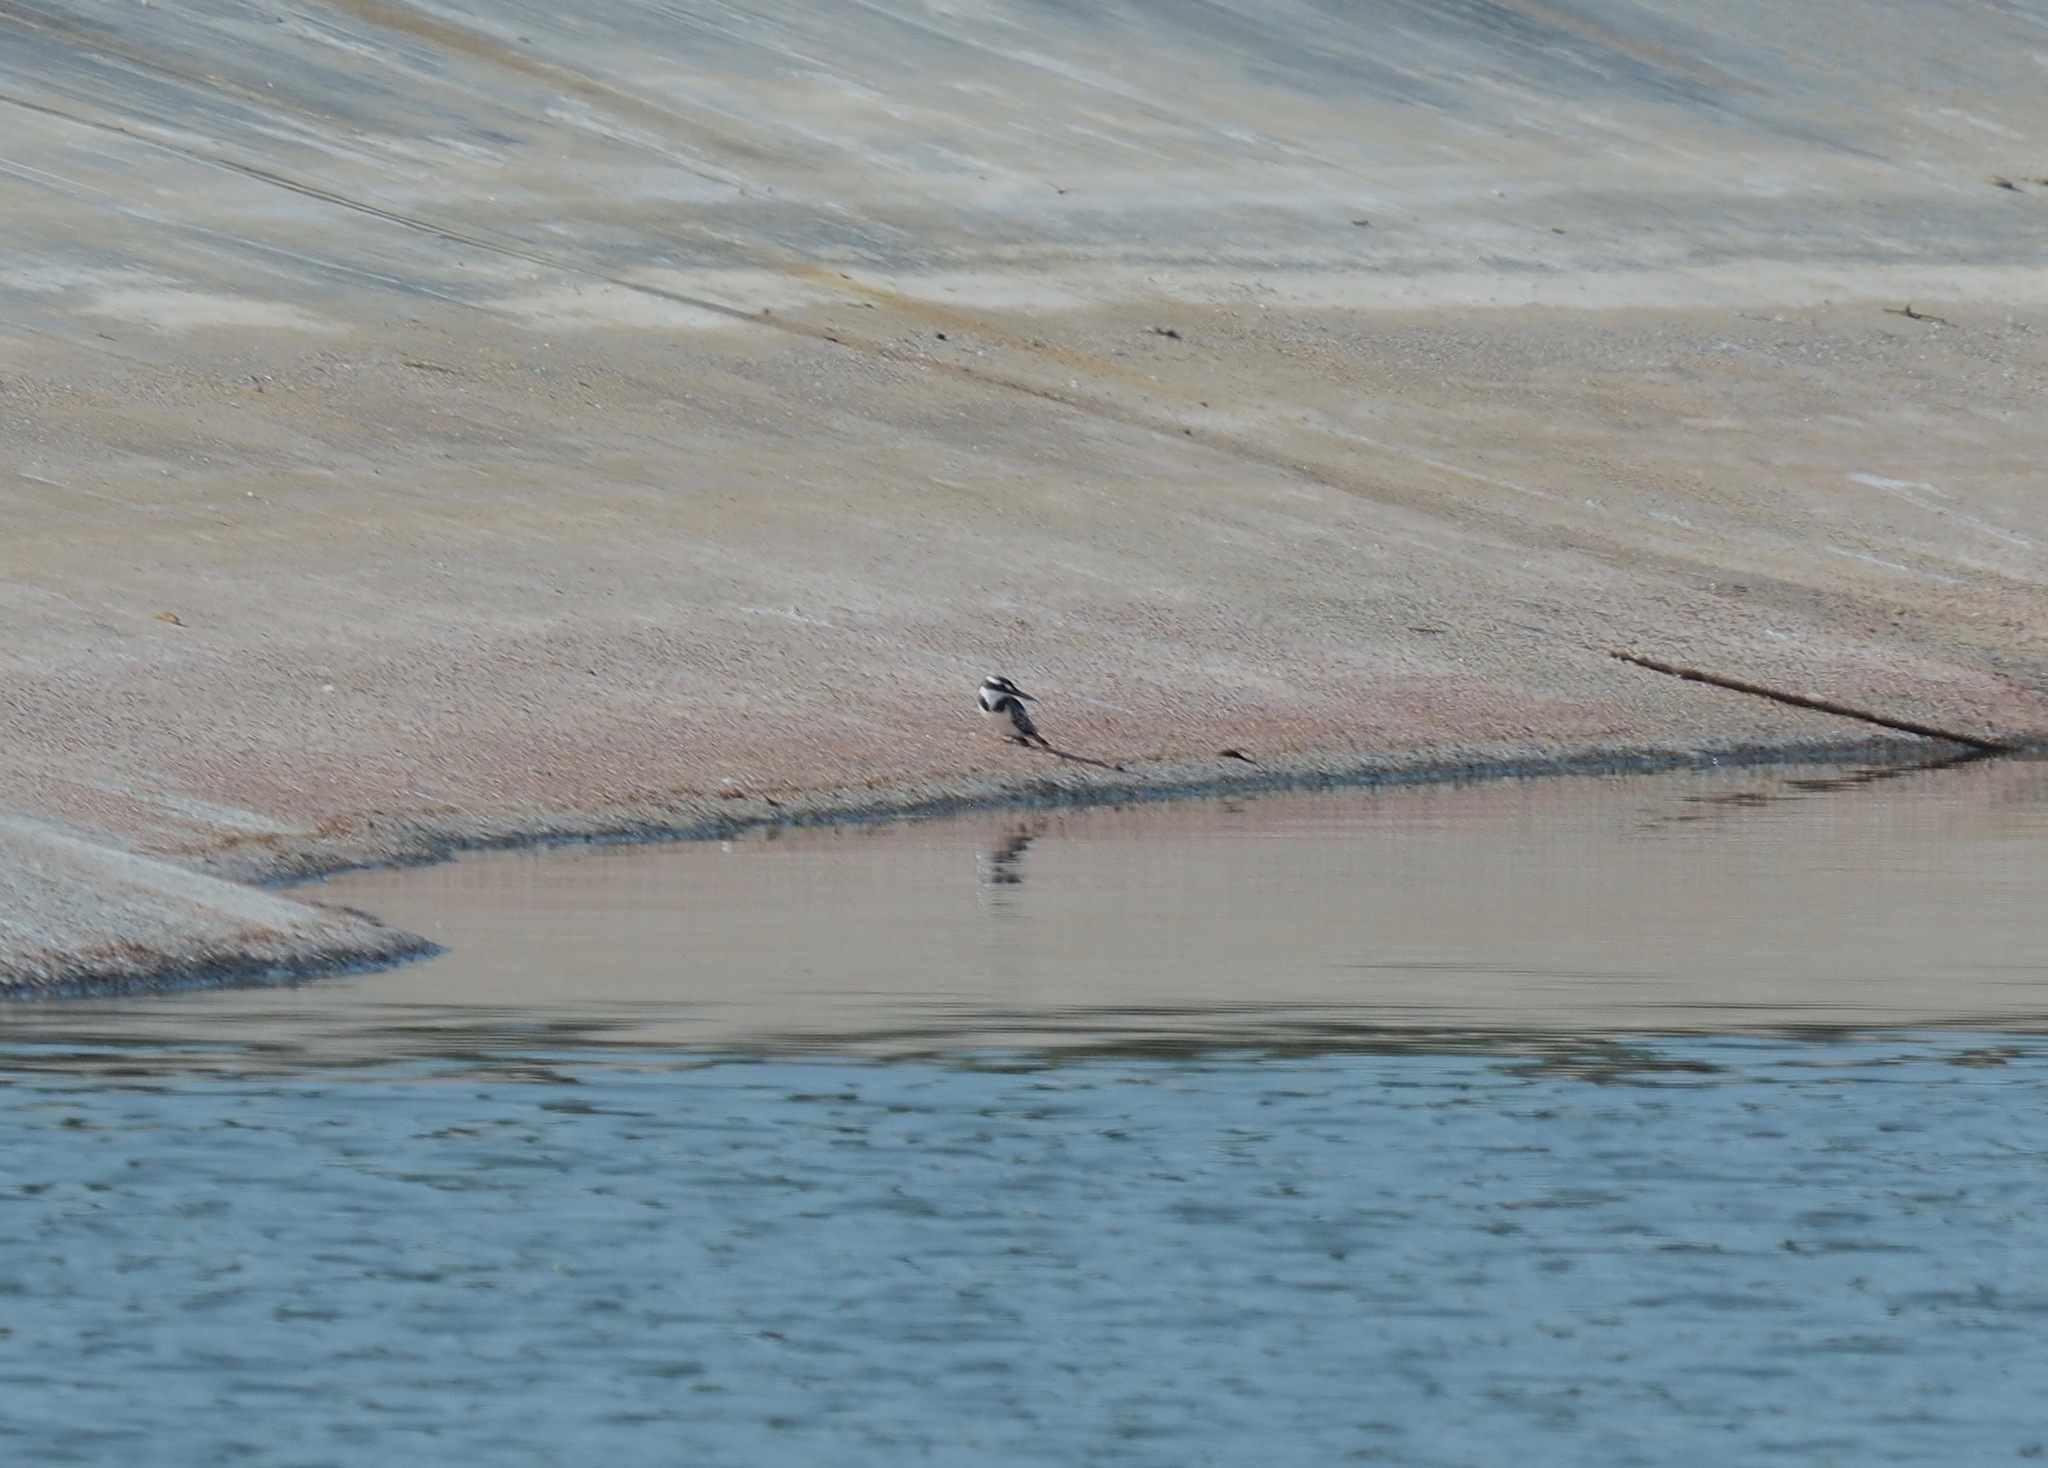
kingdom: Animalia
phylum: Chordata
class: Aves
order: Coraciiformes
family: Alcedinidae
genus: Ceryle
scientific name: Ceryle rudis
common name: Pied kingfisher
